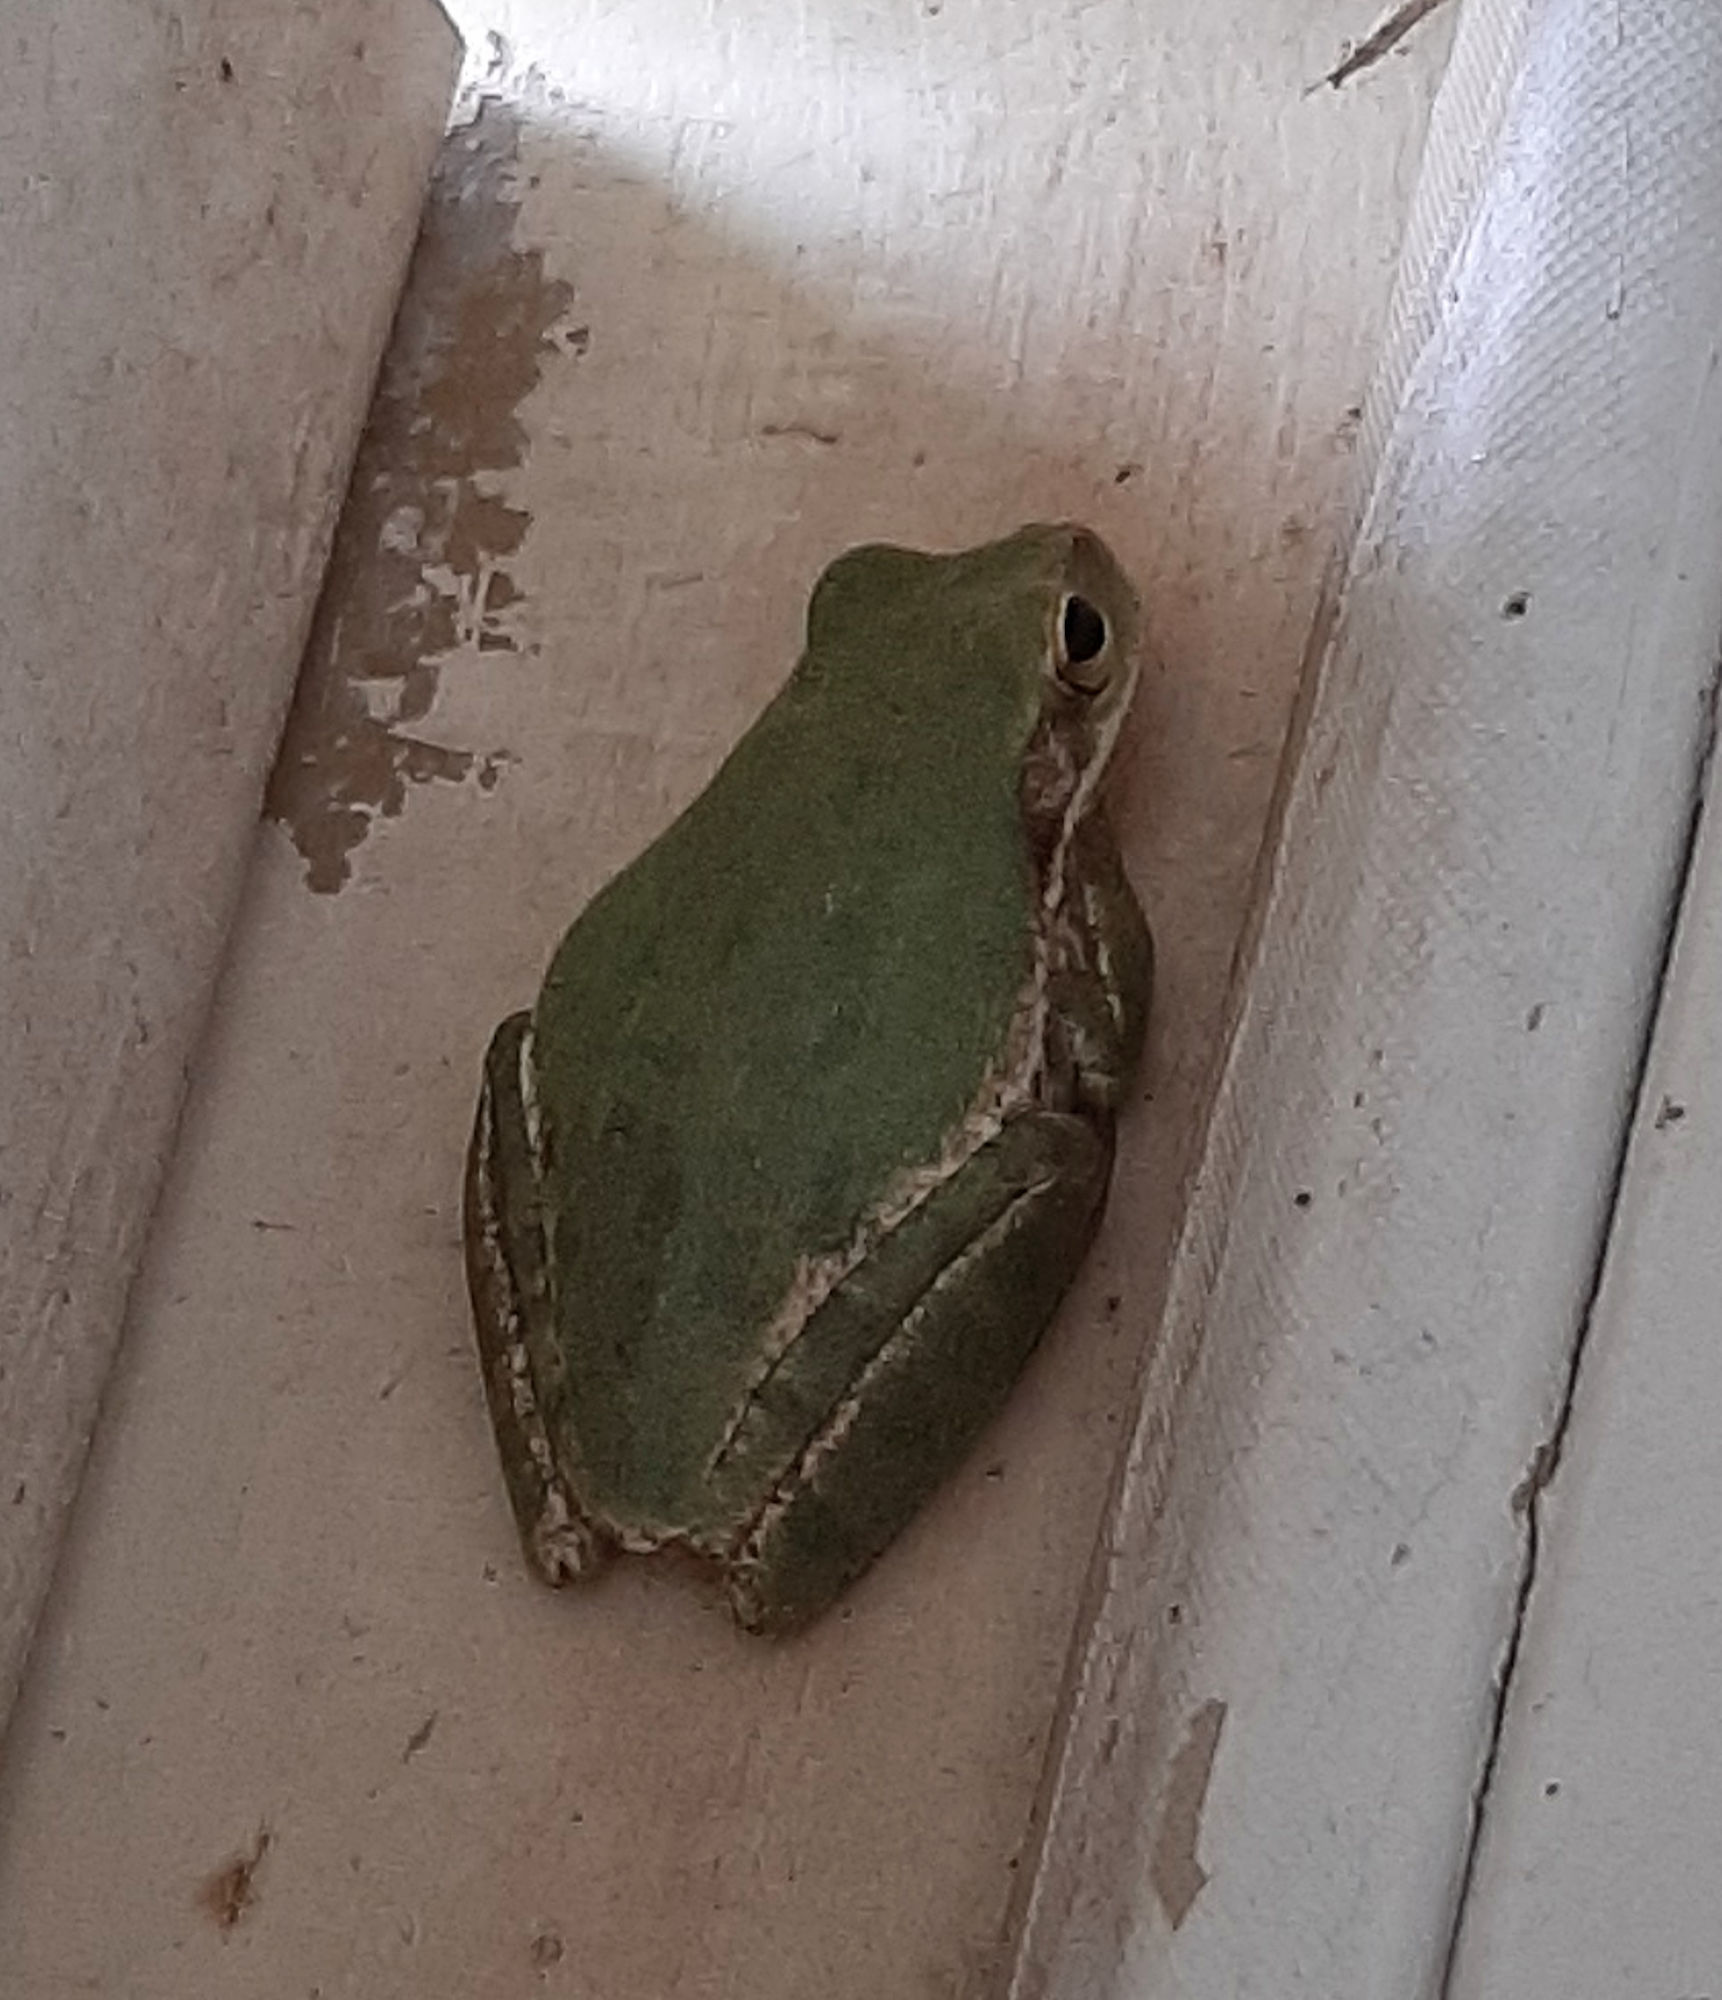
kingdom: Animalia
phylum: Chordata
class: Amphibia
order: Anura
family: Hylidae
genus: Dryophytes
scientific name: Dryophytes squirellus
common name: Squirrel treefrog
